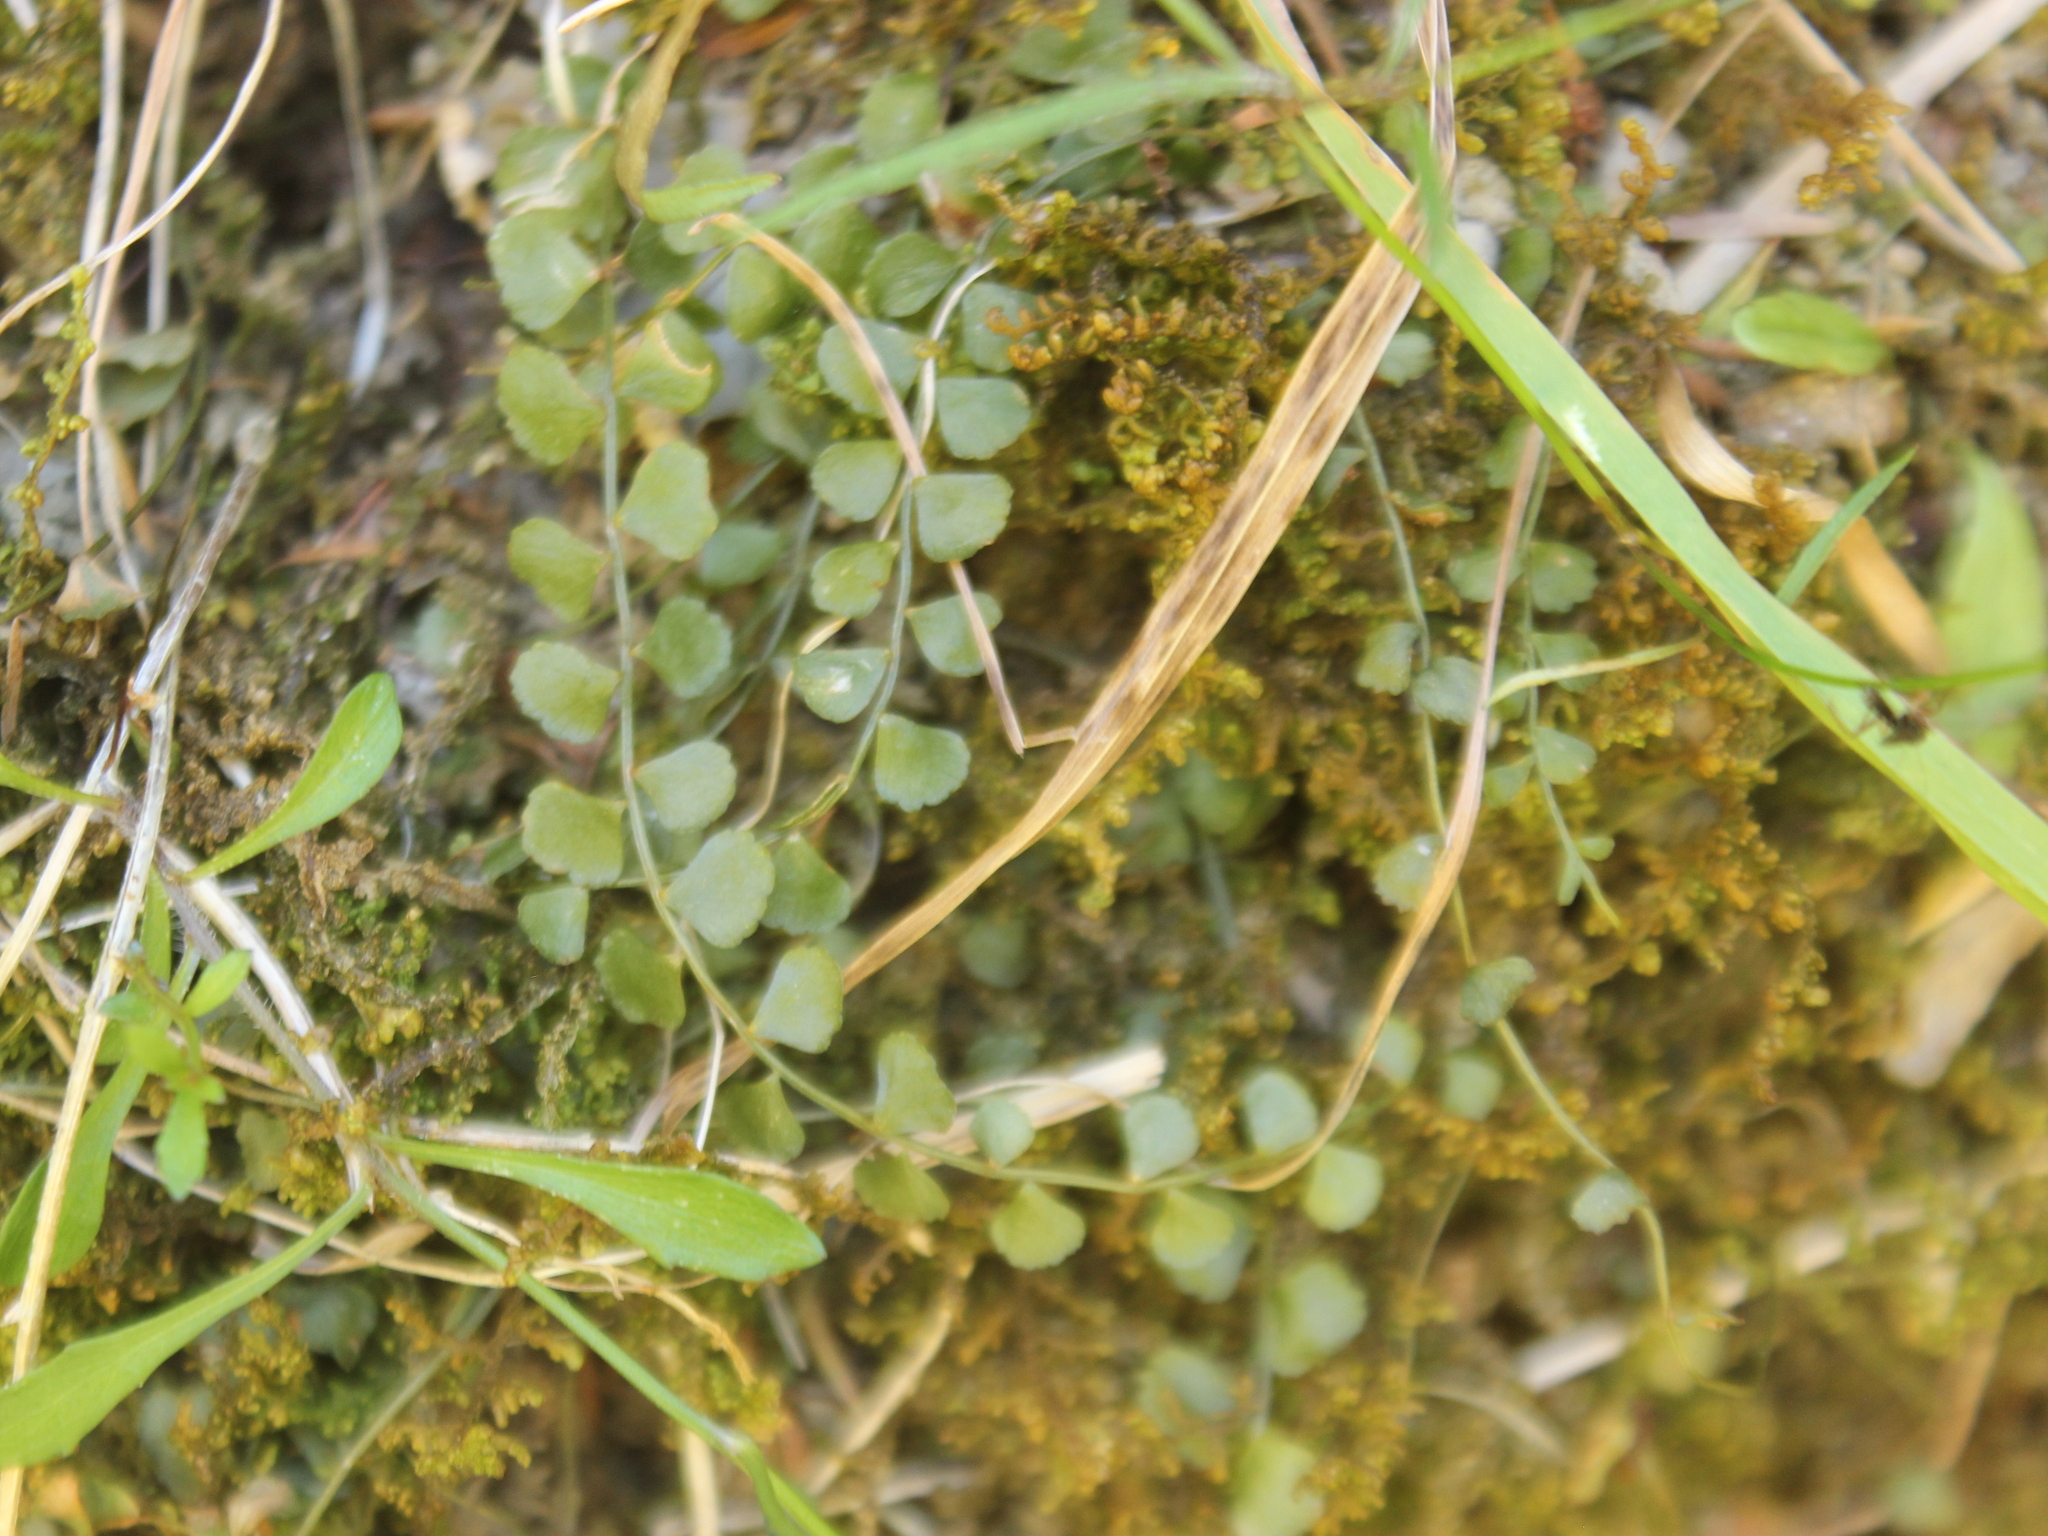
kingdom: Plantae
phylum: Tracheophyta
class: Polypodiopsida
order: Polypodiales
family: Aspleniaceae
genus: Asplenium
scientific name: Asplenium flabellifolium
